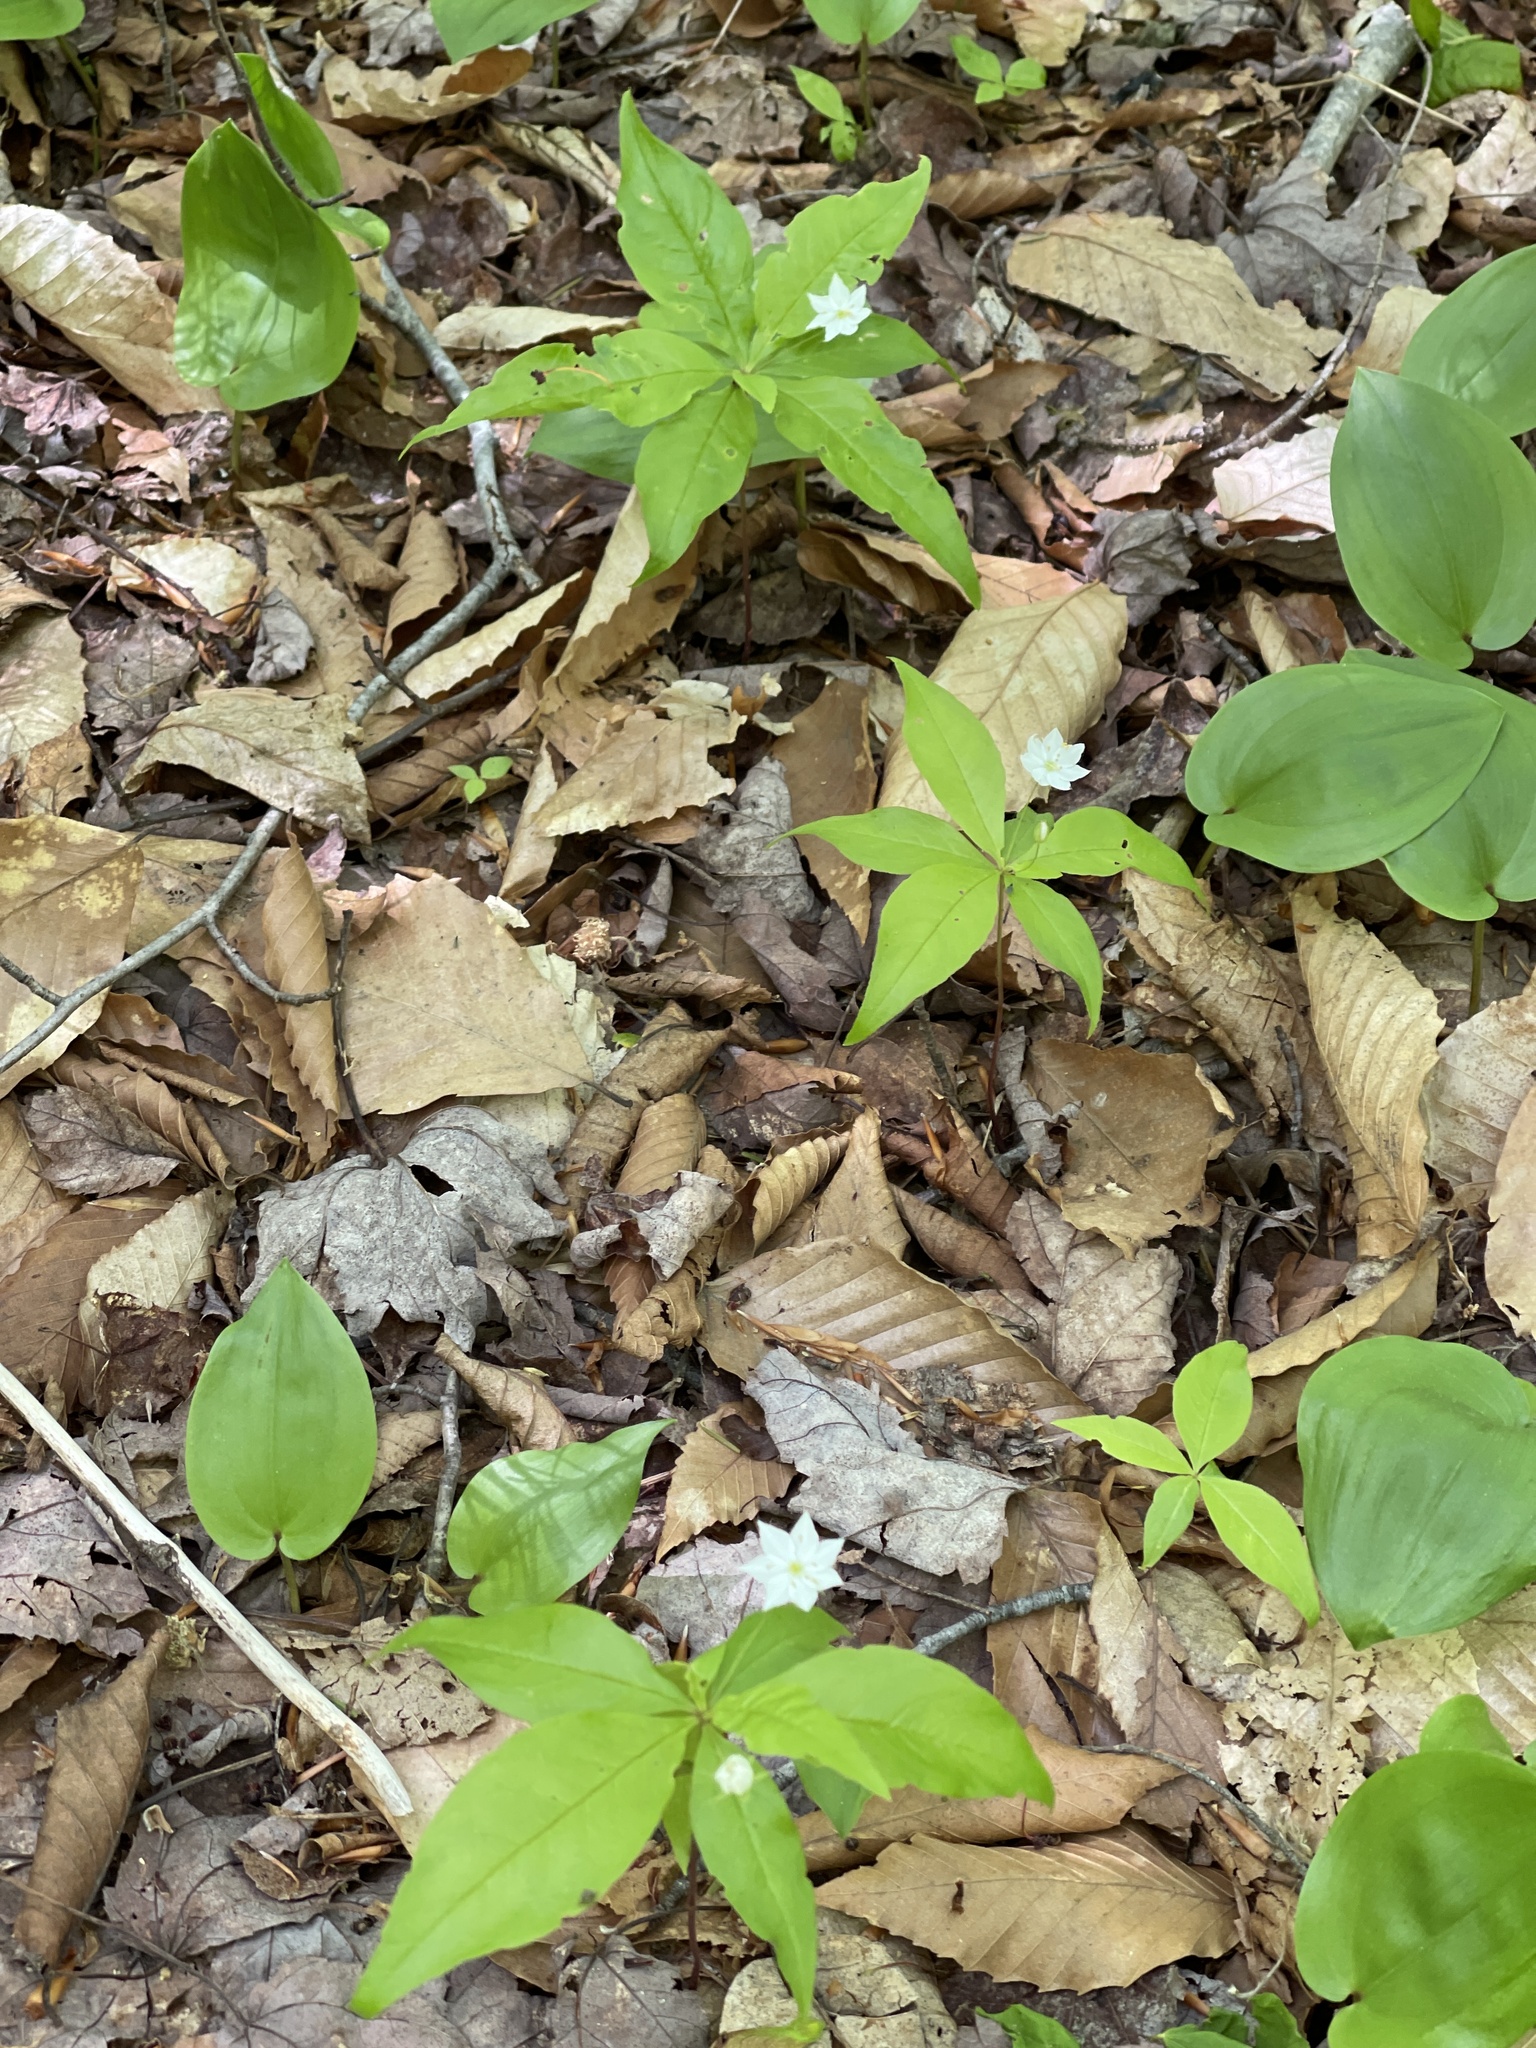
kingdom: Plantae
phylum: Tracheophyta
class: Magnoliopsida
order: Ericales
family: Primulaceae
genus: Lysimachia
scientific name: Lysimachia borealis
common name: American starflower
